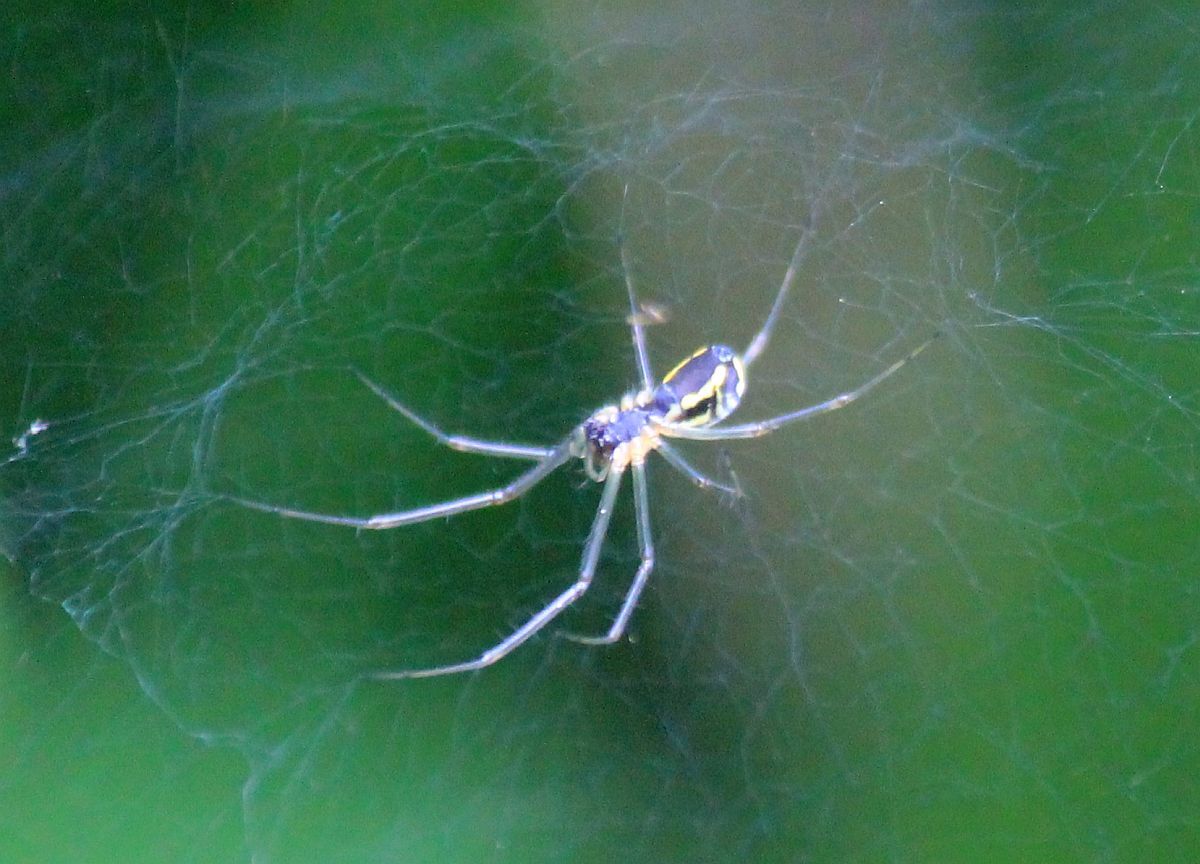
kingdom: Animalia
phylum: Arthropoda
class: Arachnida
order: Araneae
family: Linyphiidae
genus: Neriene
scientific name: Neriene radiata
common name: Filmy dome spider
